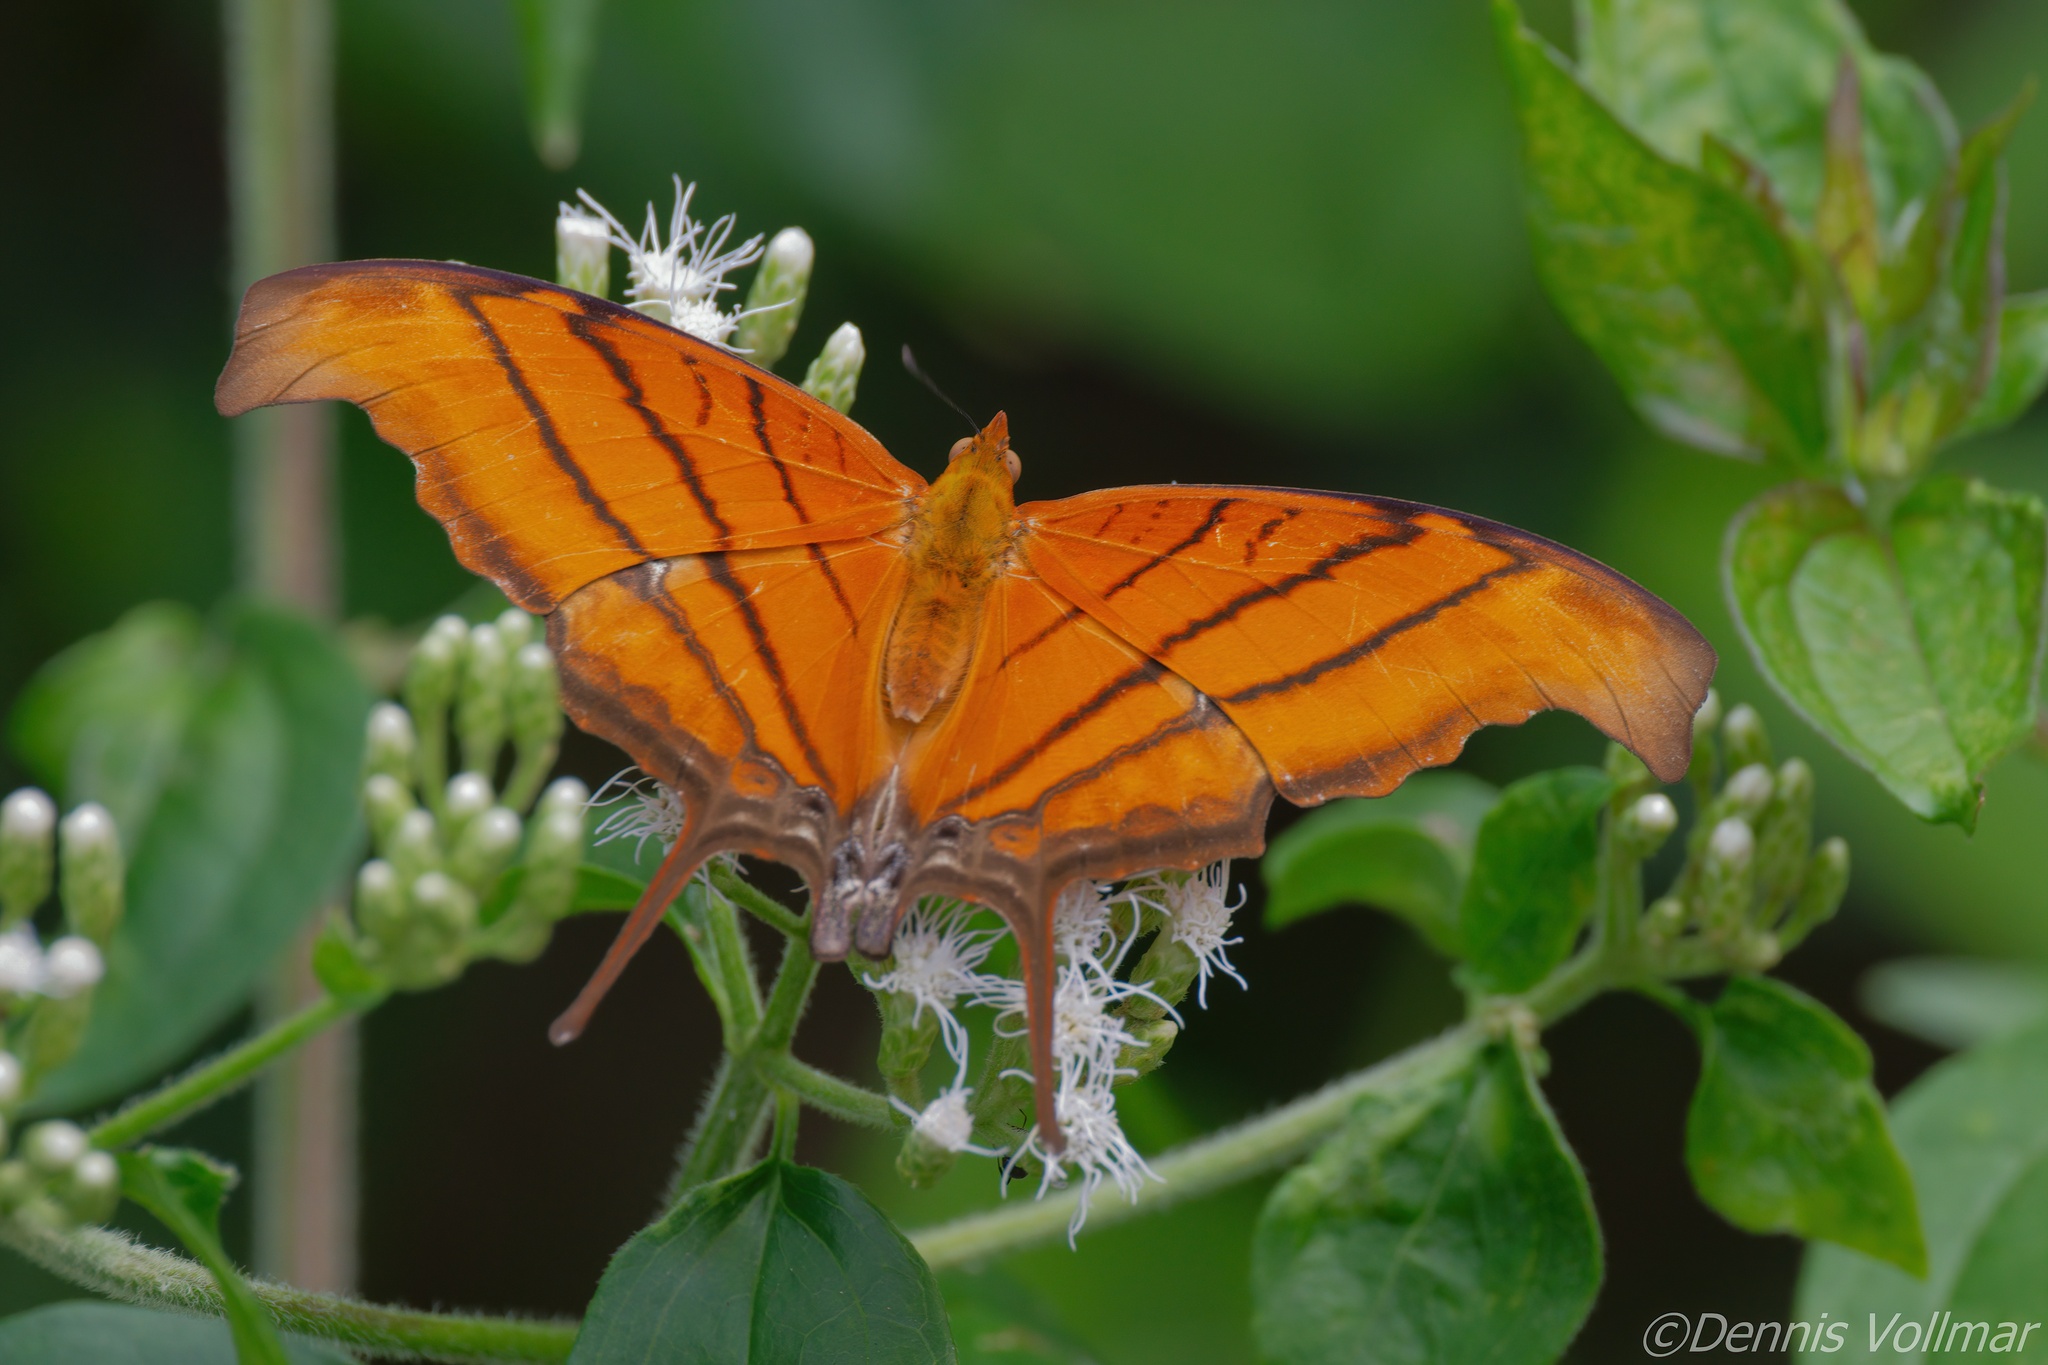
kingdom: Animalia
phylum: Arthropoda
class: Insecta
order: Lepidoptera
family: Nymphalidae
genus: Marpesia
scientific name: Marpesia petreus
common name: Red dagger wing
